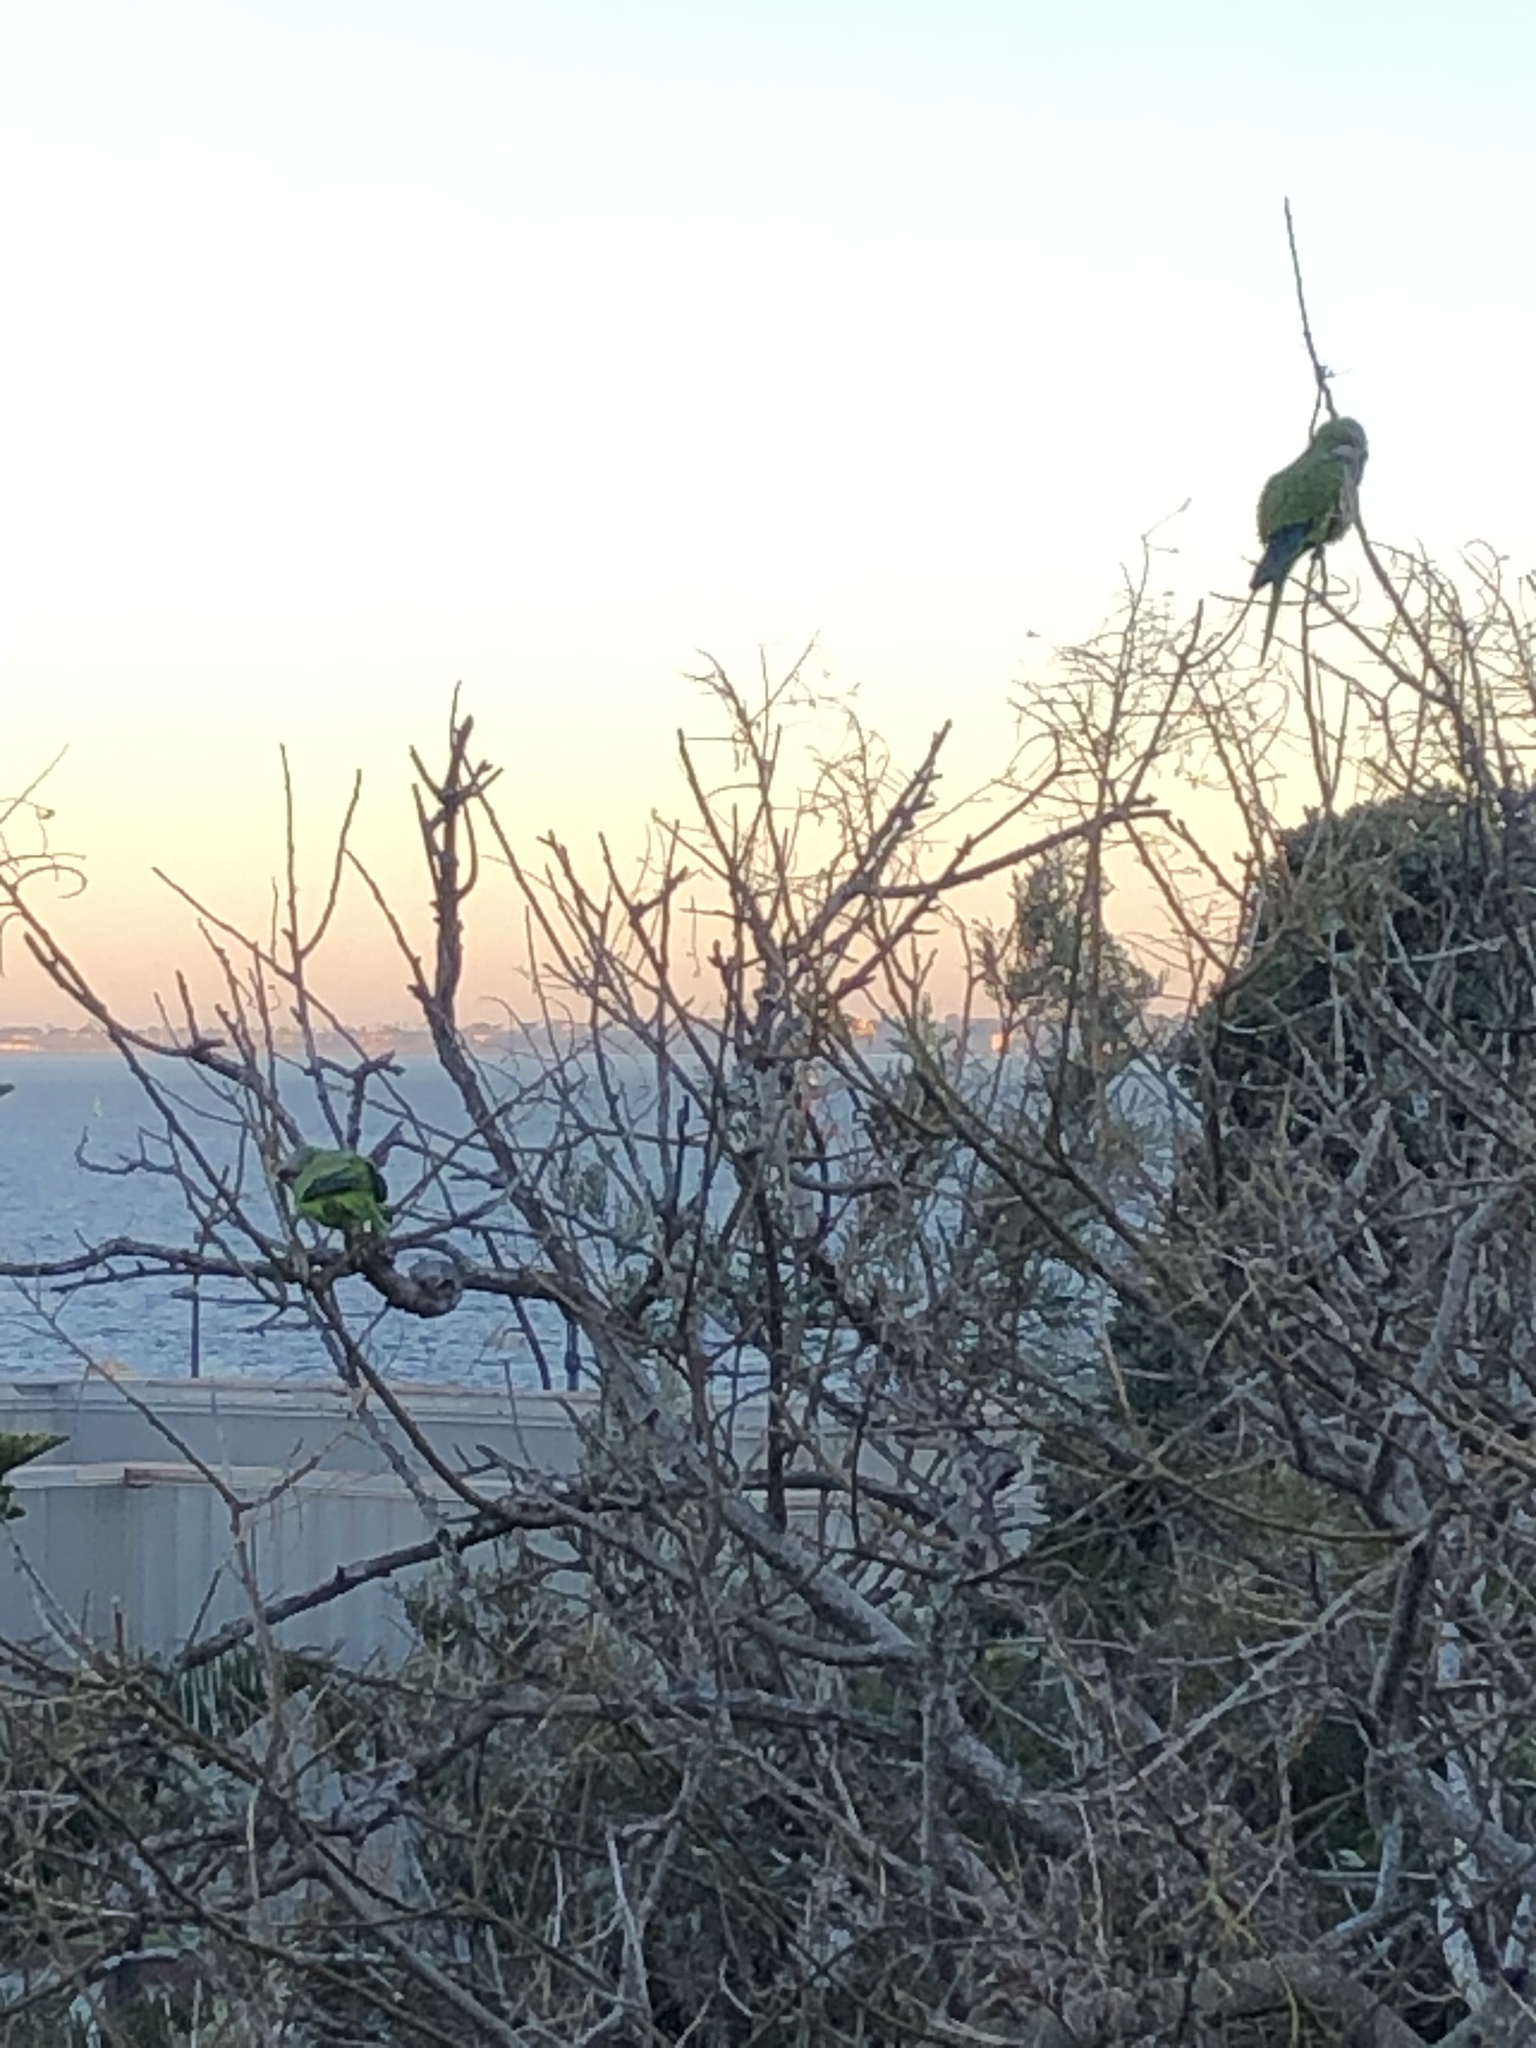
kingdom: Animalia
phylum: Chordata
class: Aves
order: Psittaciformes
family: Psittacidae
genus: Myiopsitta
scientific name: Myiopsitta monachus
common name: Monk parakeet
